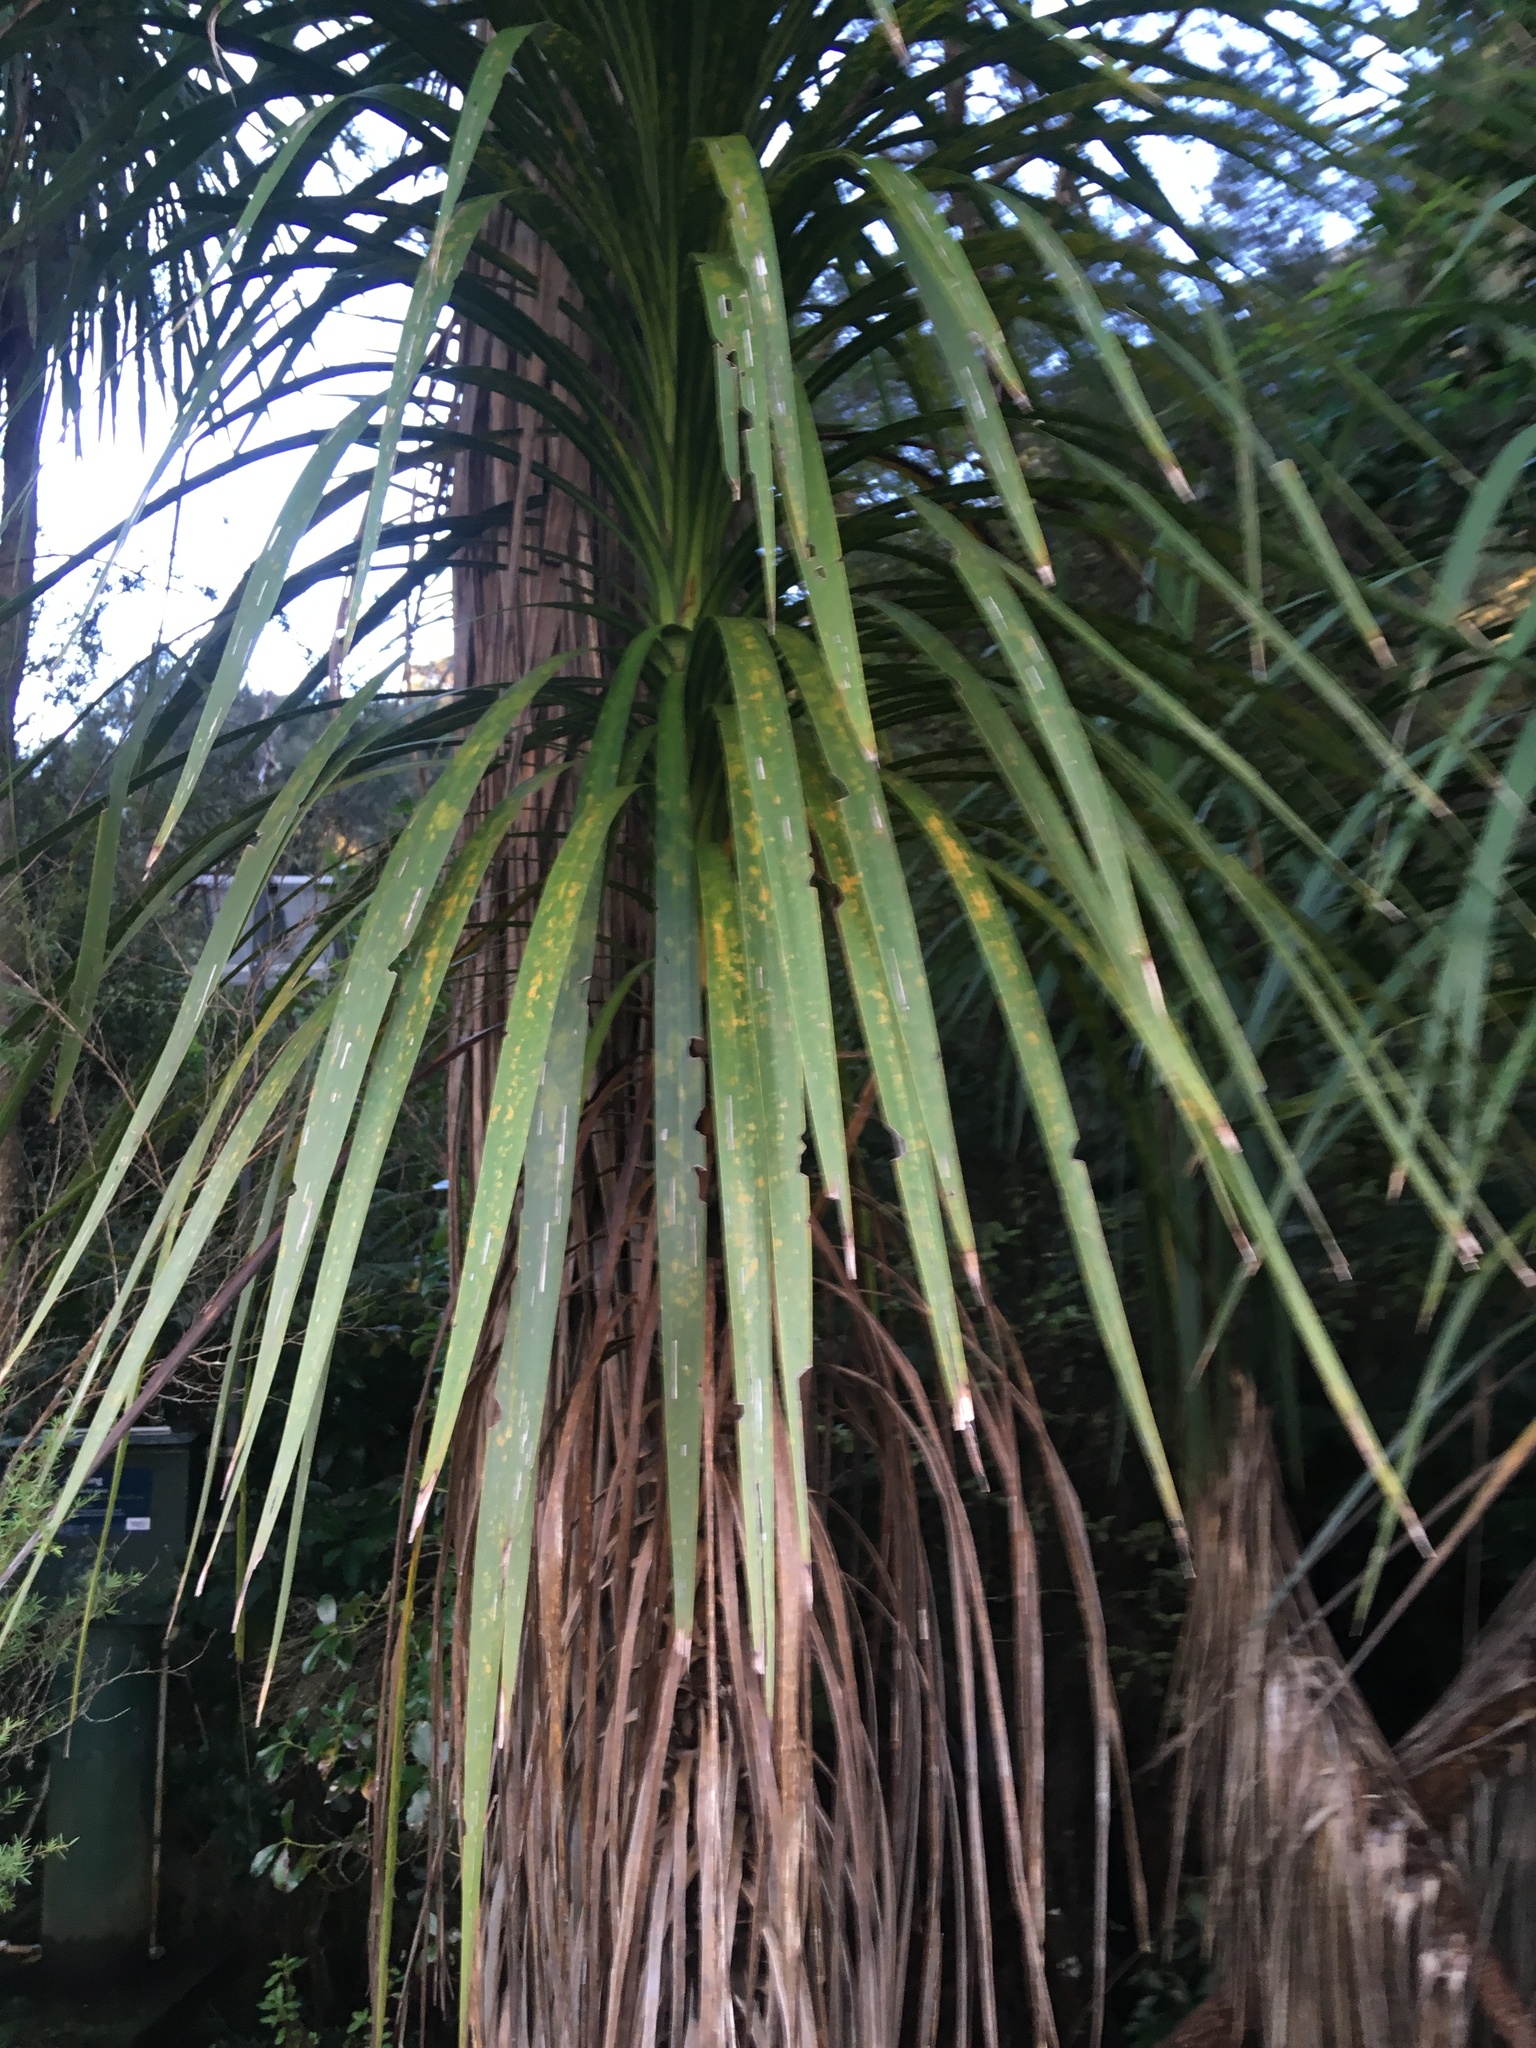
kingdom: Plantae
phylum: Tracheophyta
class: Liliopsida
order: Asparagales
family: Asparagaceae
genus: Cordyline
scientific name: Cordyline australis
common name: Cabbage-palm
